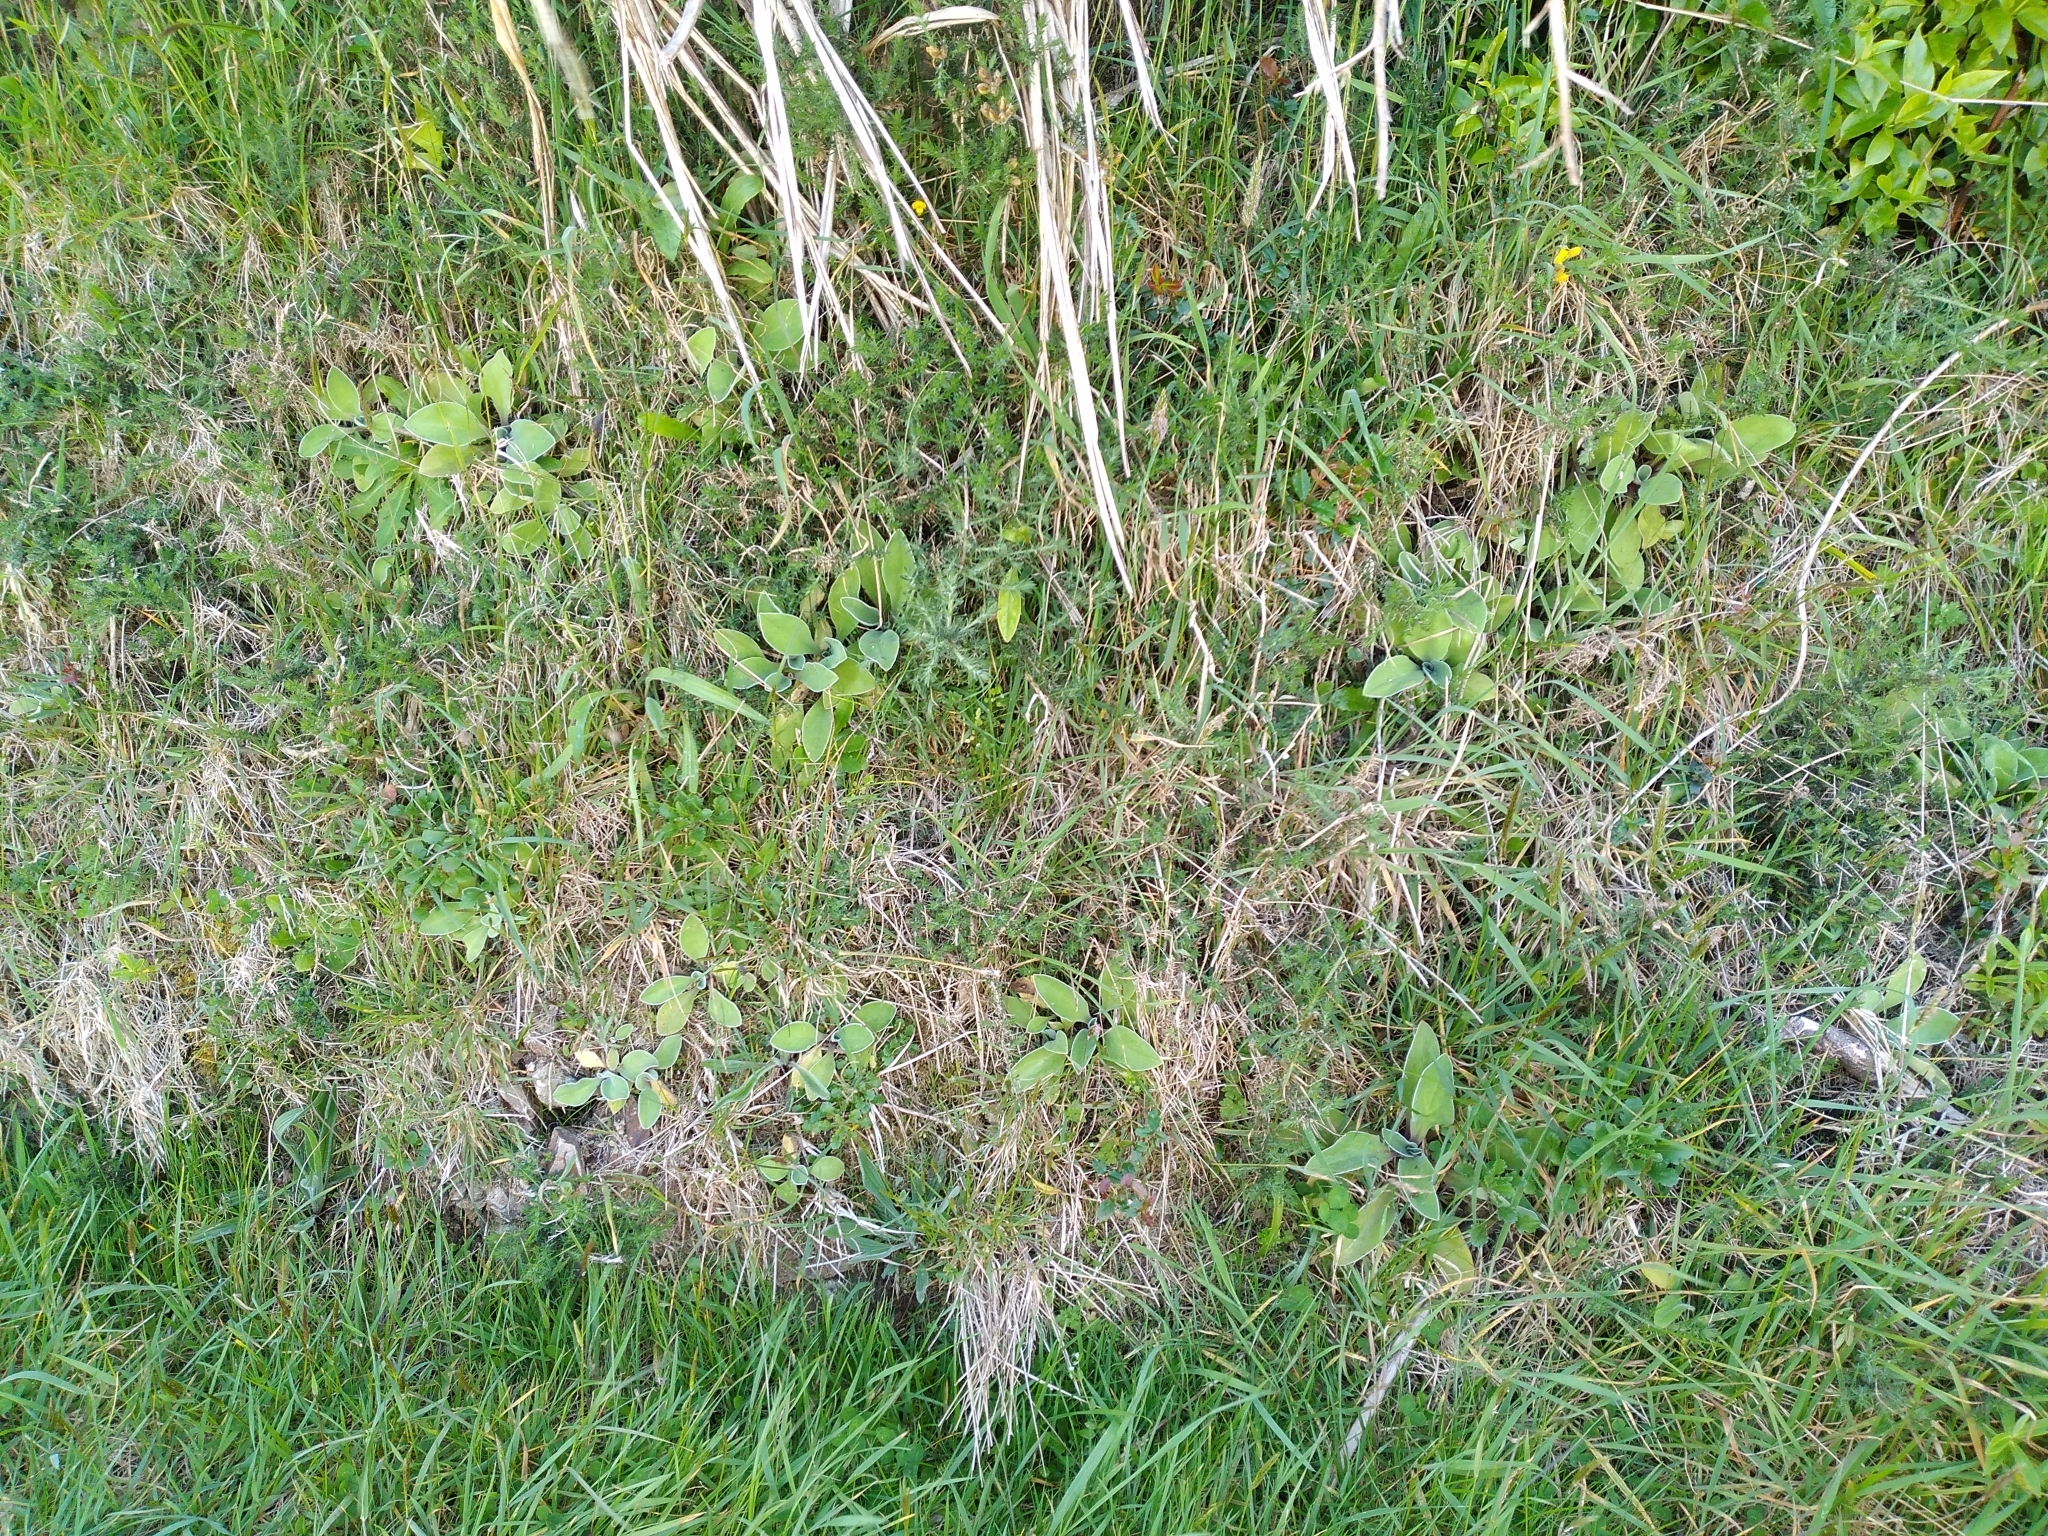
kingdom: Plantae
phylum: Tracheophyta
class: Magnoliopsida
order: Asterales
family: Asteraceae
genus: Craspedia
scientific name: Craspedia uniflora
